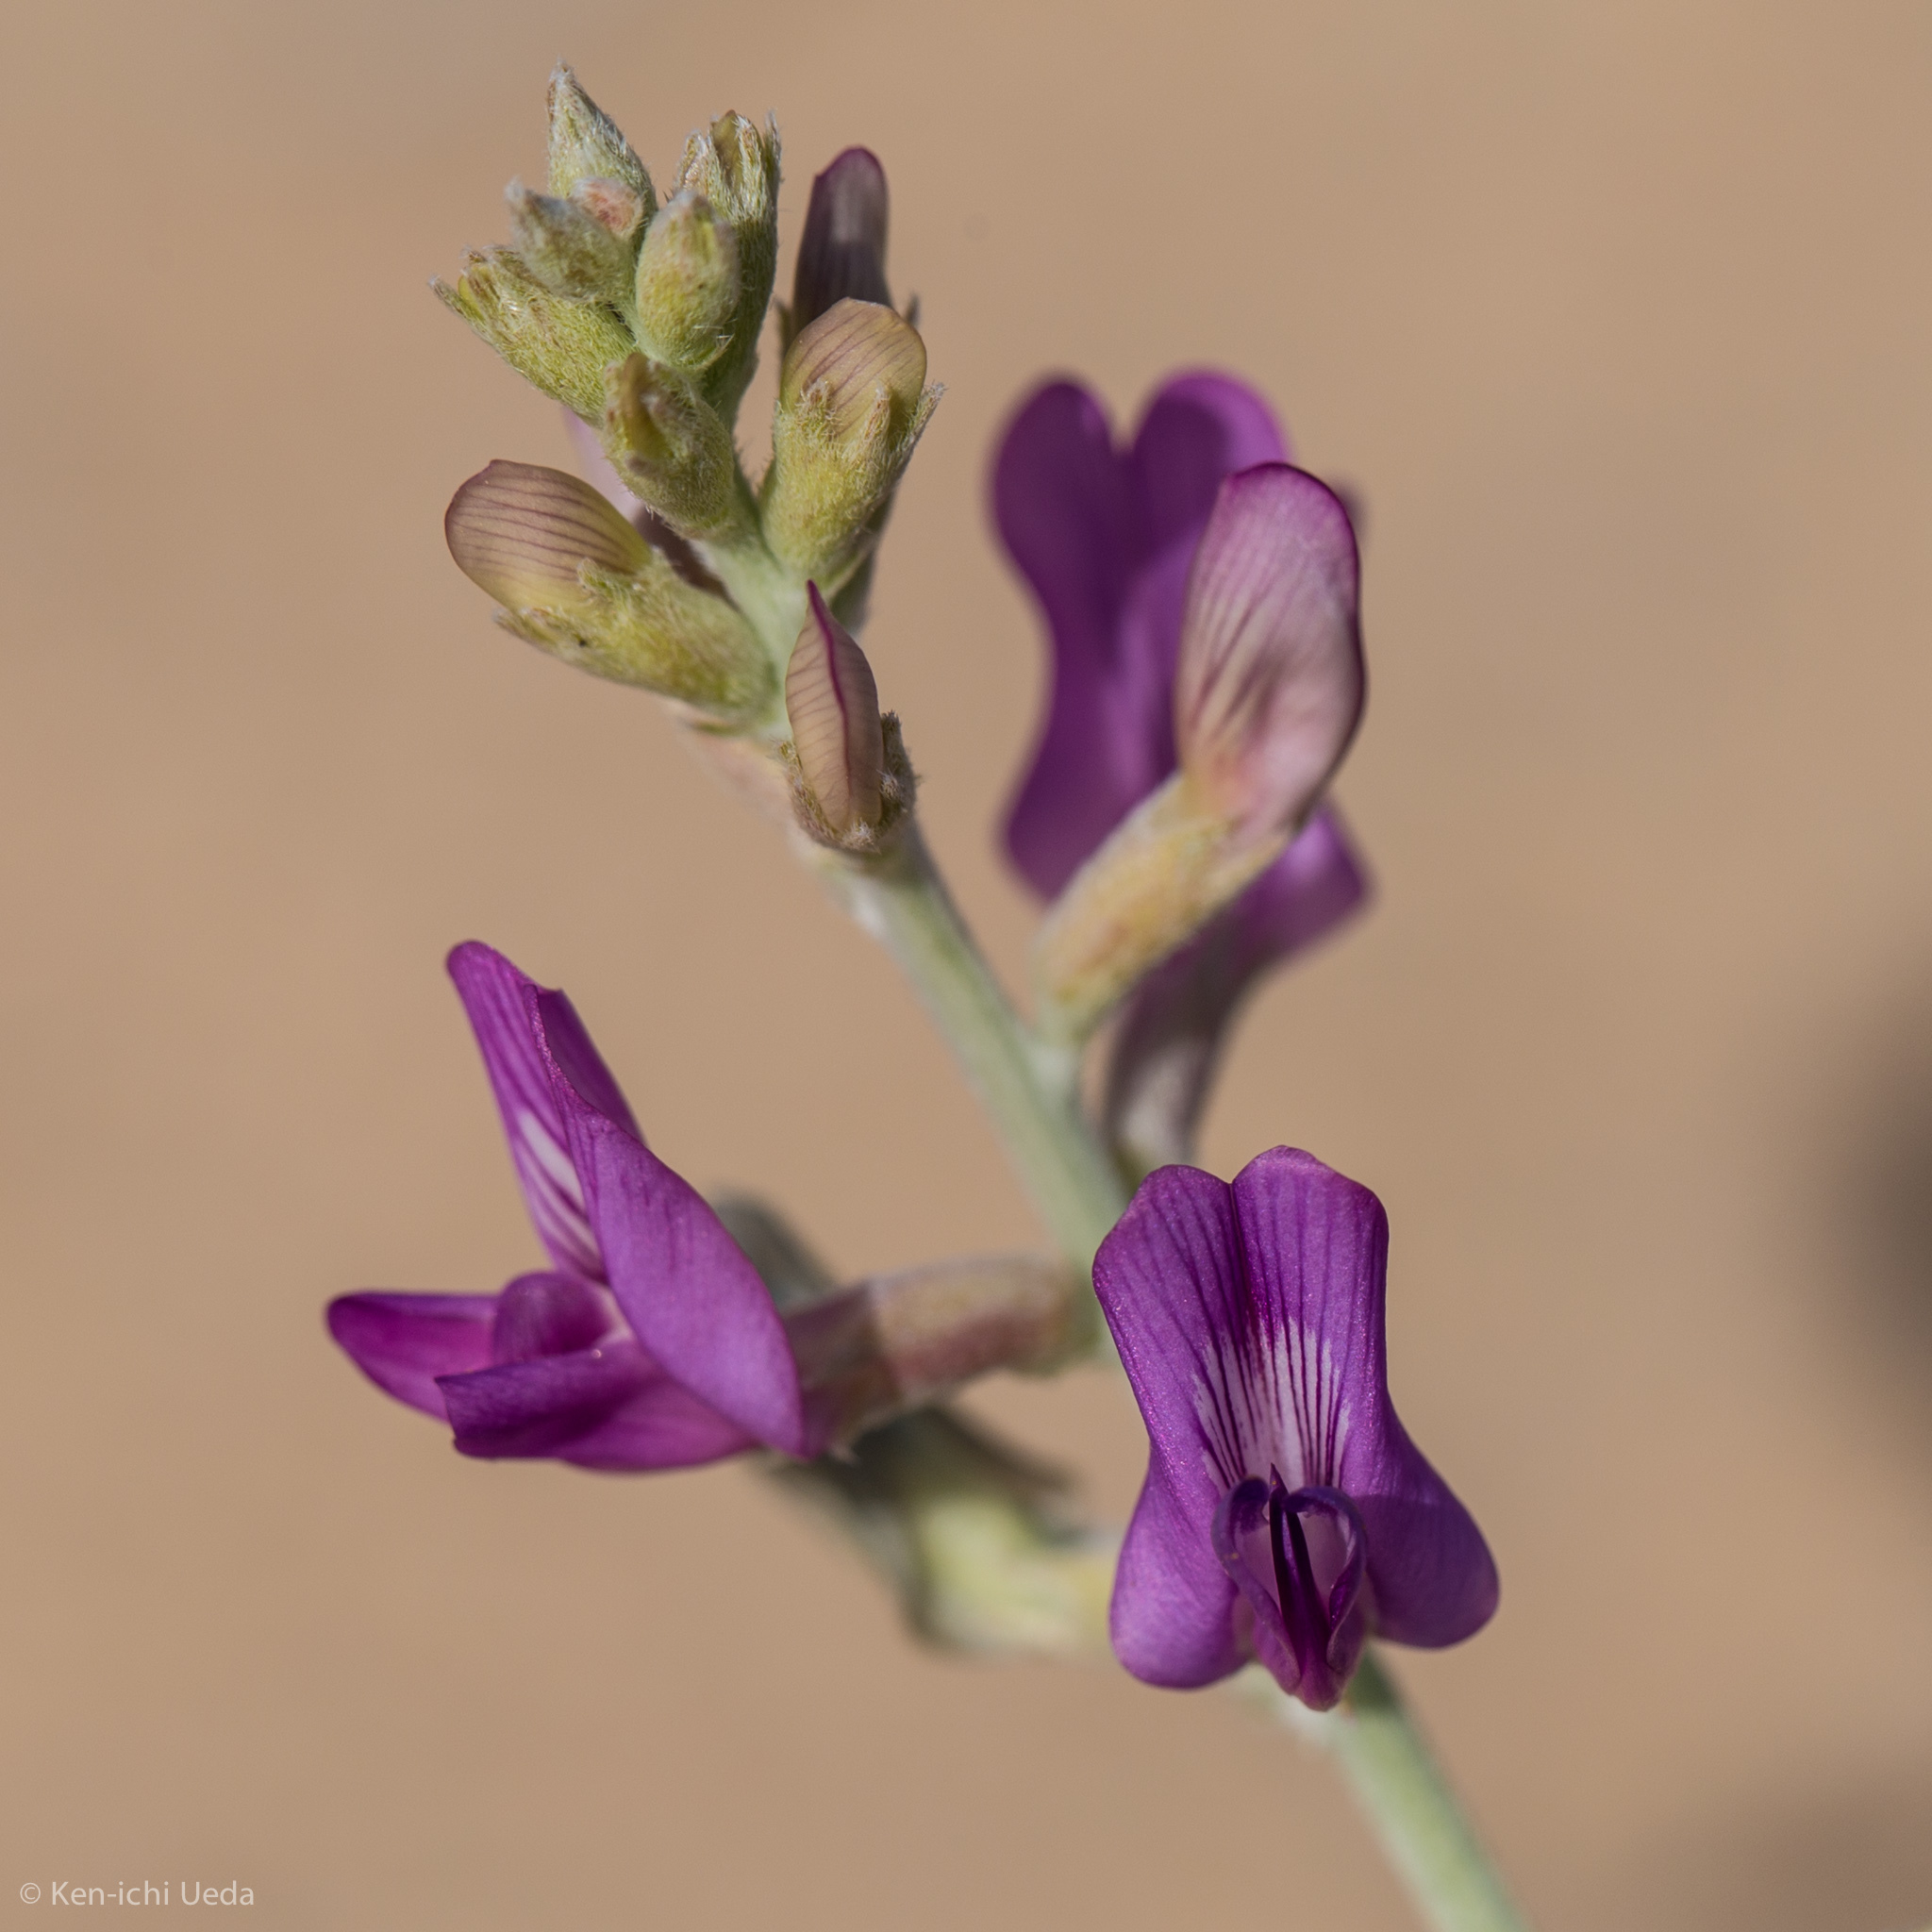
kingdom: Plantae
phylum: Tracheophyta
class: Magnoliopsida
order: Fabales
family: Fabaceae
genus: Astragalus
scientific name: Astragalus lentiginosus
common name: Freckled milkvetch
